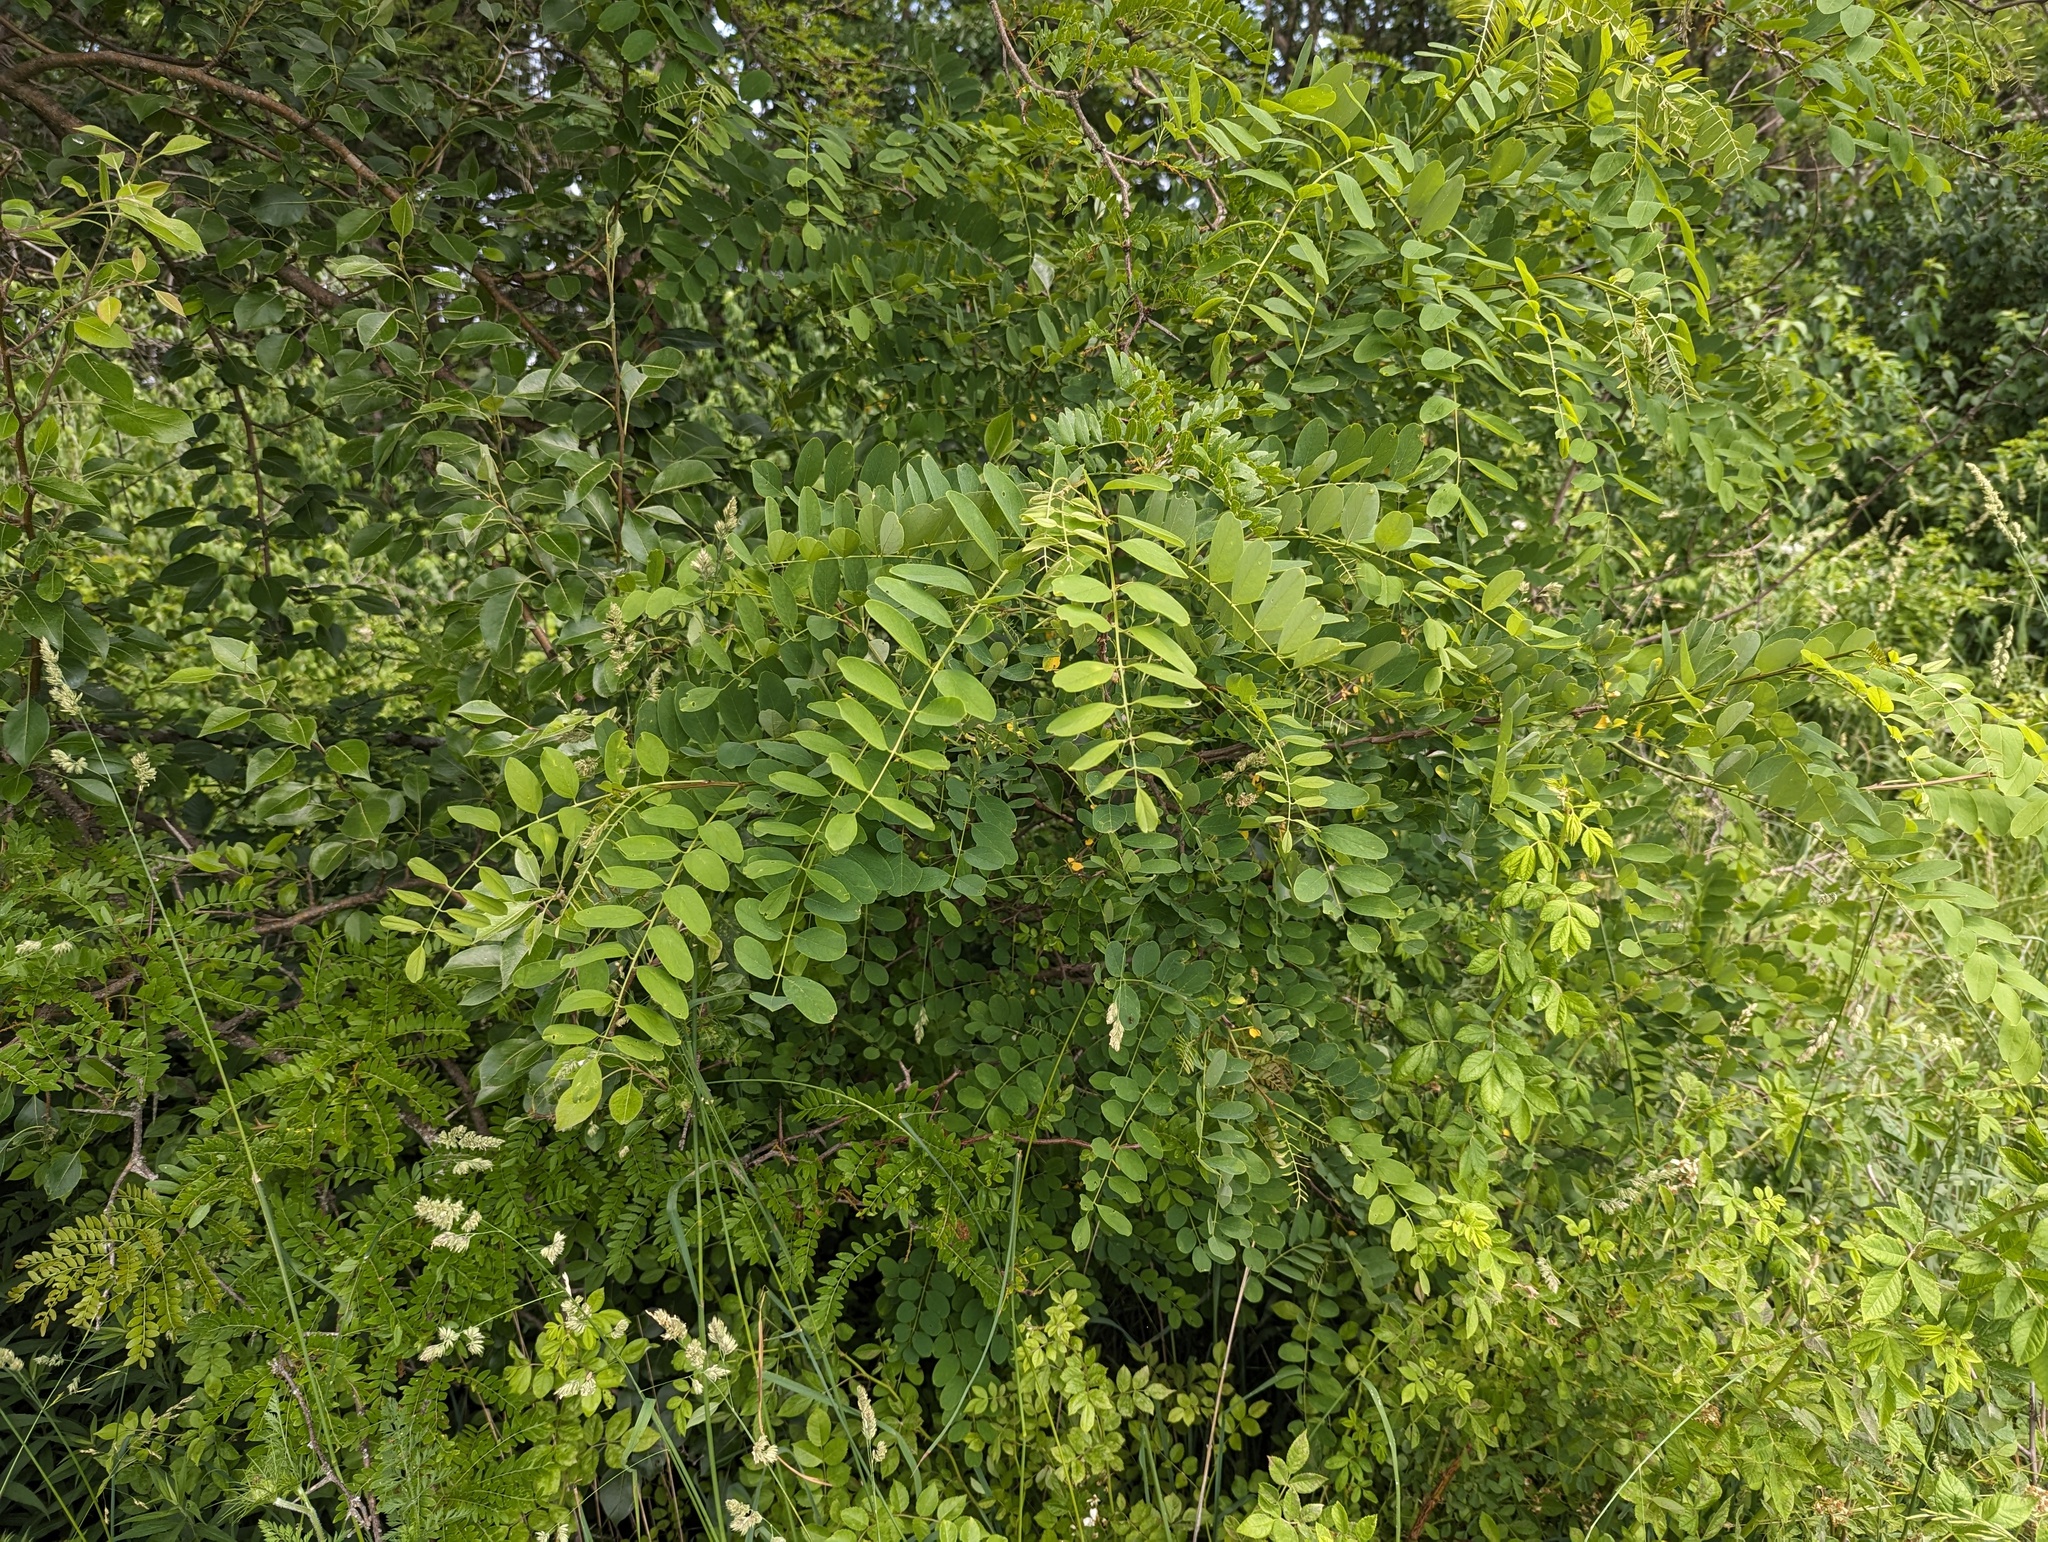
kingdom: Plantae
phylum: Tracheophyta
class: Magnoliopsida
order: Fabales
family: Fabaceae
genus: Robinia
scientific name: Robinia pseudoacacia
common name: Black locust
